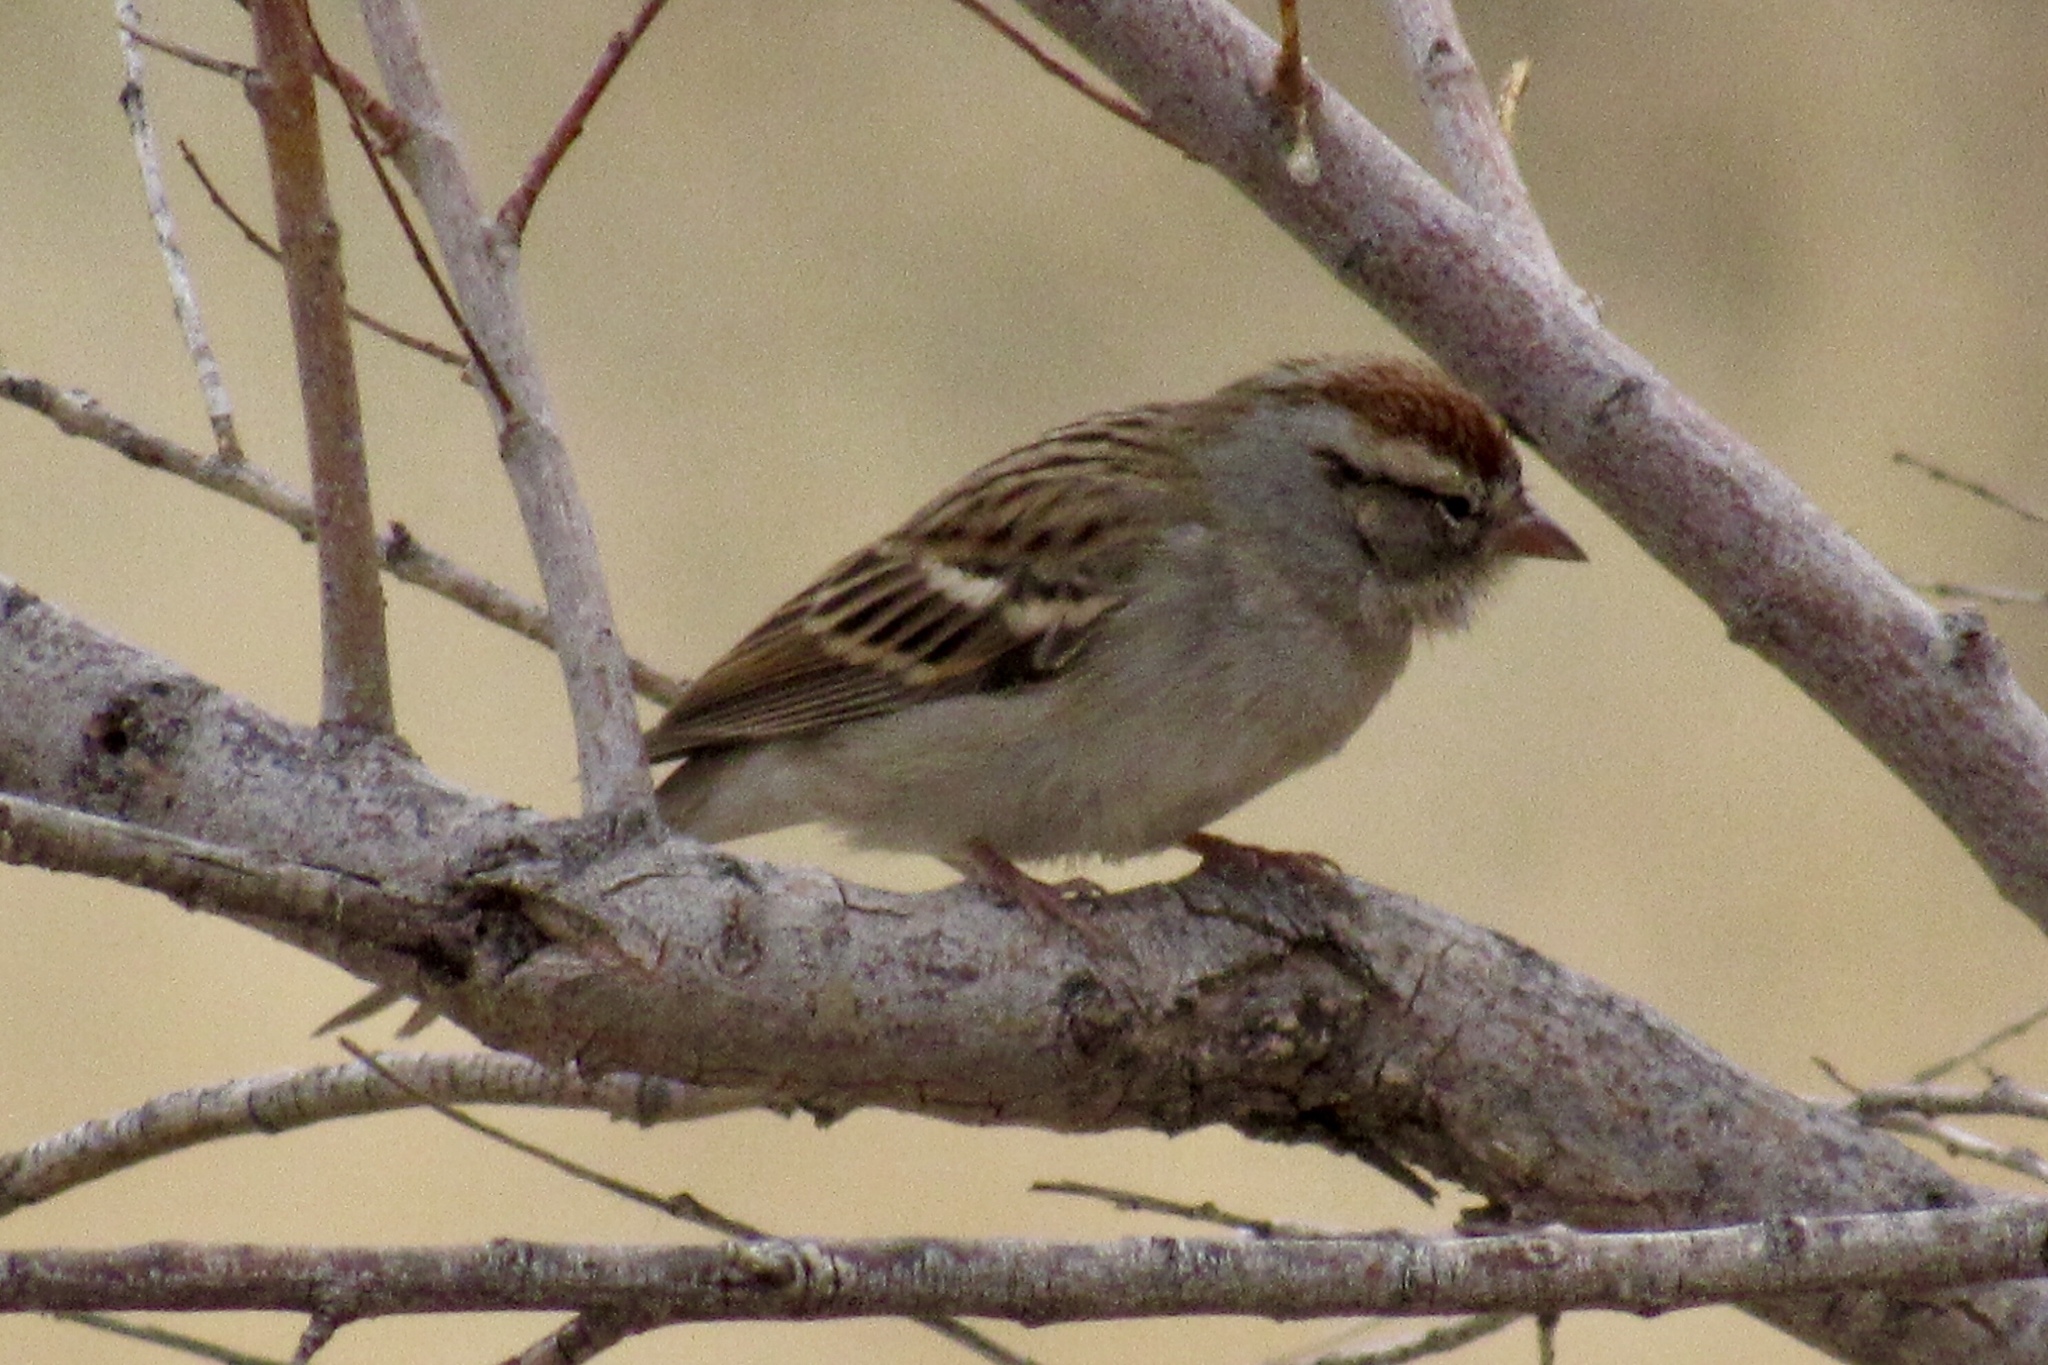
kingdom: Animalia
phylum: Chordata
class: Aves
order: Passeriformes
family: Passerellidae
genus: Spizella
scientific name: Spizella passerina
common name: Chipping sparrow
